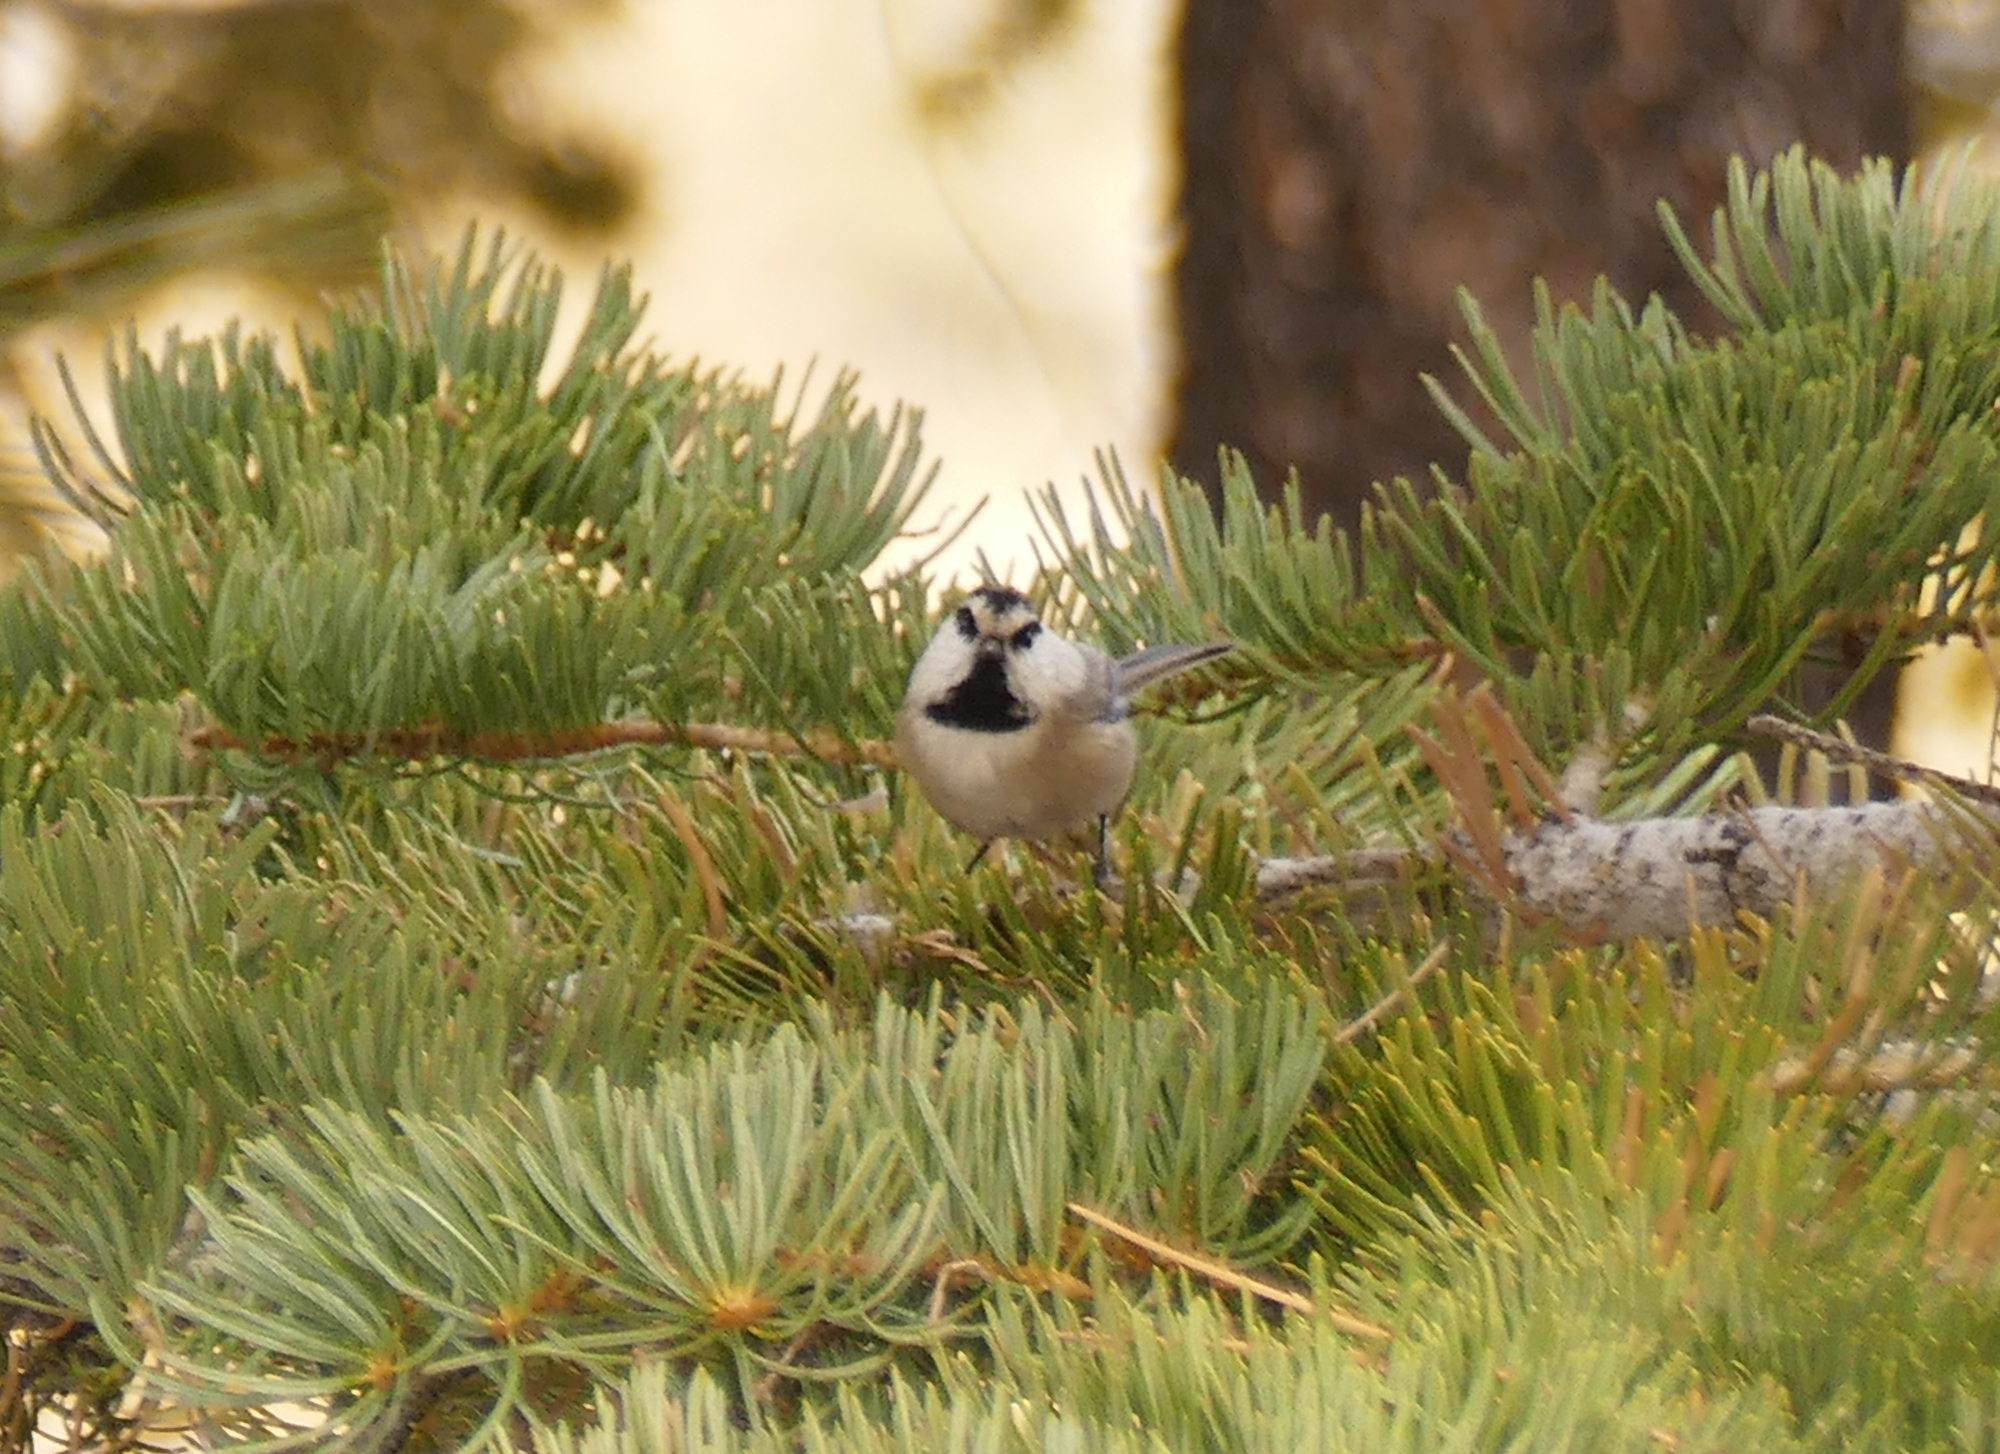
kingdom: Animalia
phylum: Chordata
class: Aves
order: Passeriformes
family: Paridae
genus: Poecile
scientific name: Poecile gambeli
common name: Mountain chickadee
